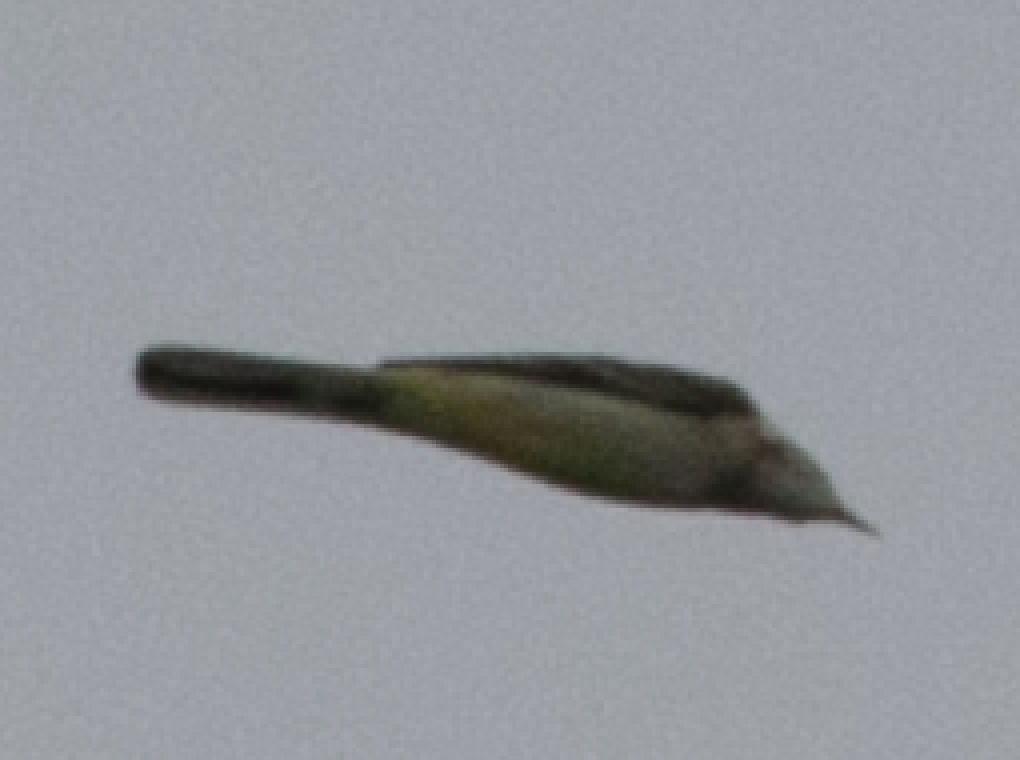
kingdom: Animalia
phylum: Chordata
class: Aves
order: Passeriformes
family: Motacillidae
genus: Motacilla
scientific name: Motacilla flava
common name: Western yellow wagtail
